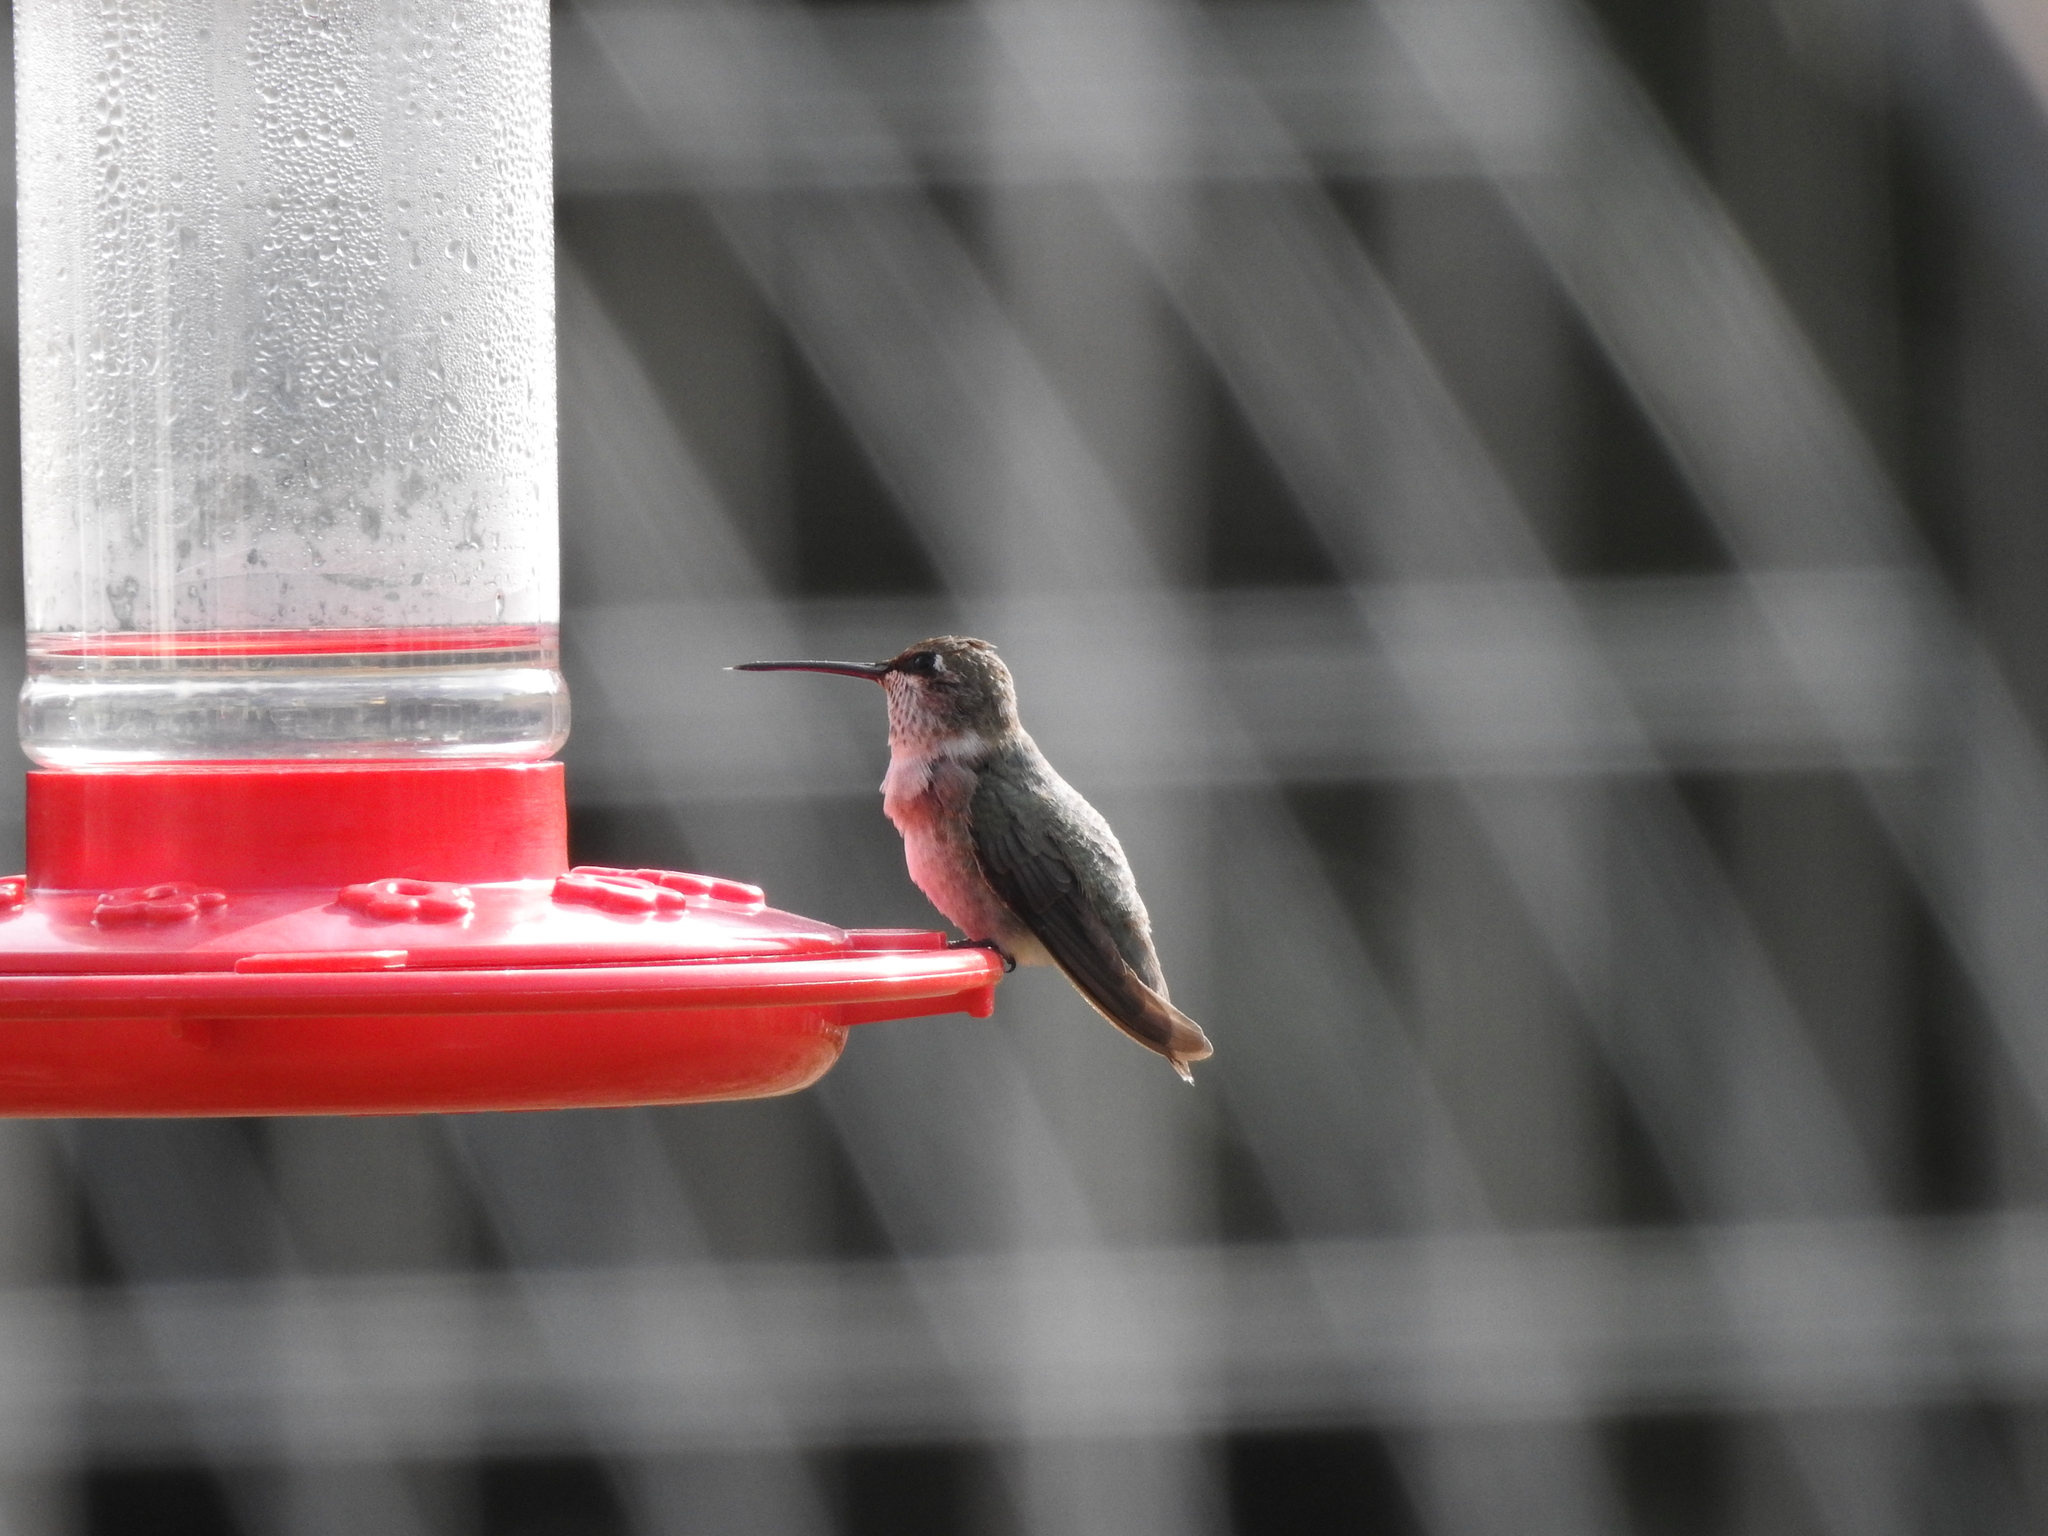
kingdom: Animalia
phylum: Chordata
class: Aves
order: Apodiformes
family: Trochilidae
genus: Archilochus
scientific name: Archilochus alexandri
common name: Black-chinned hummingbird
